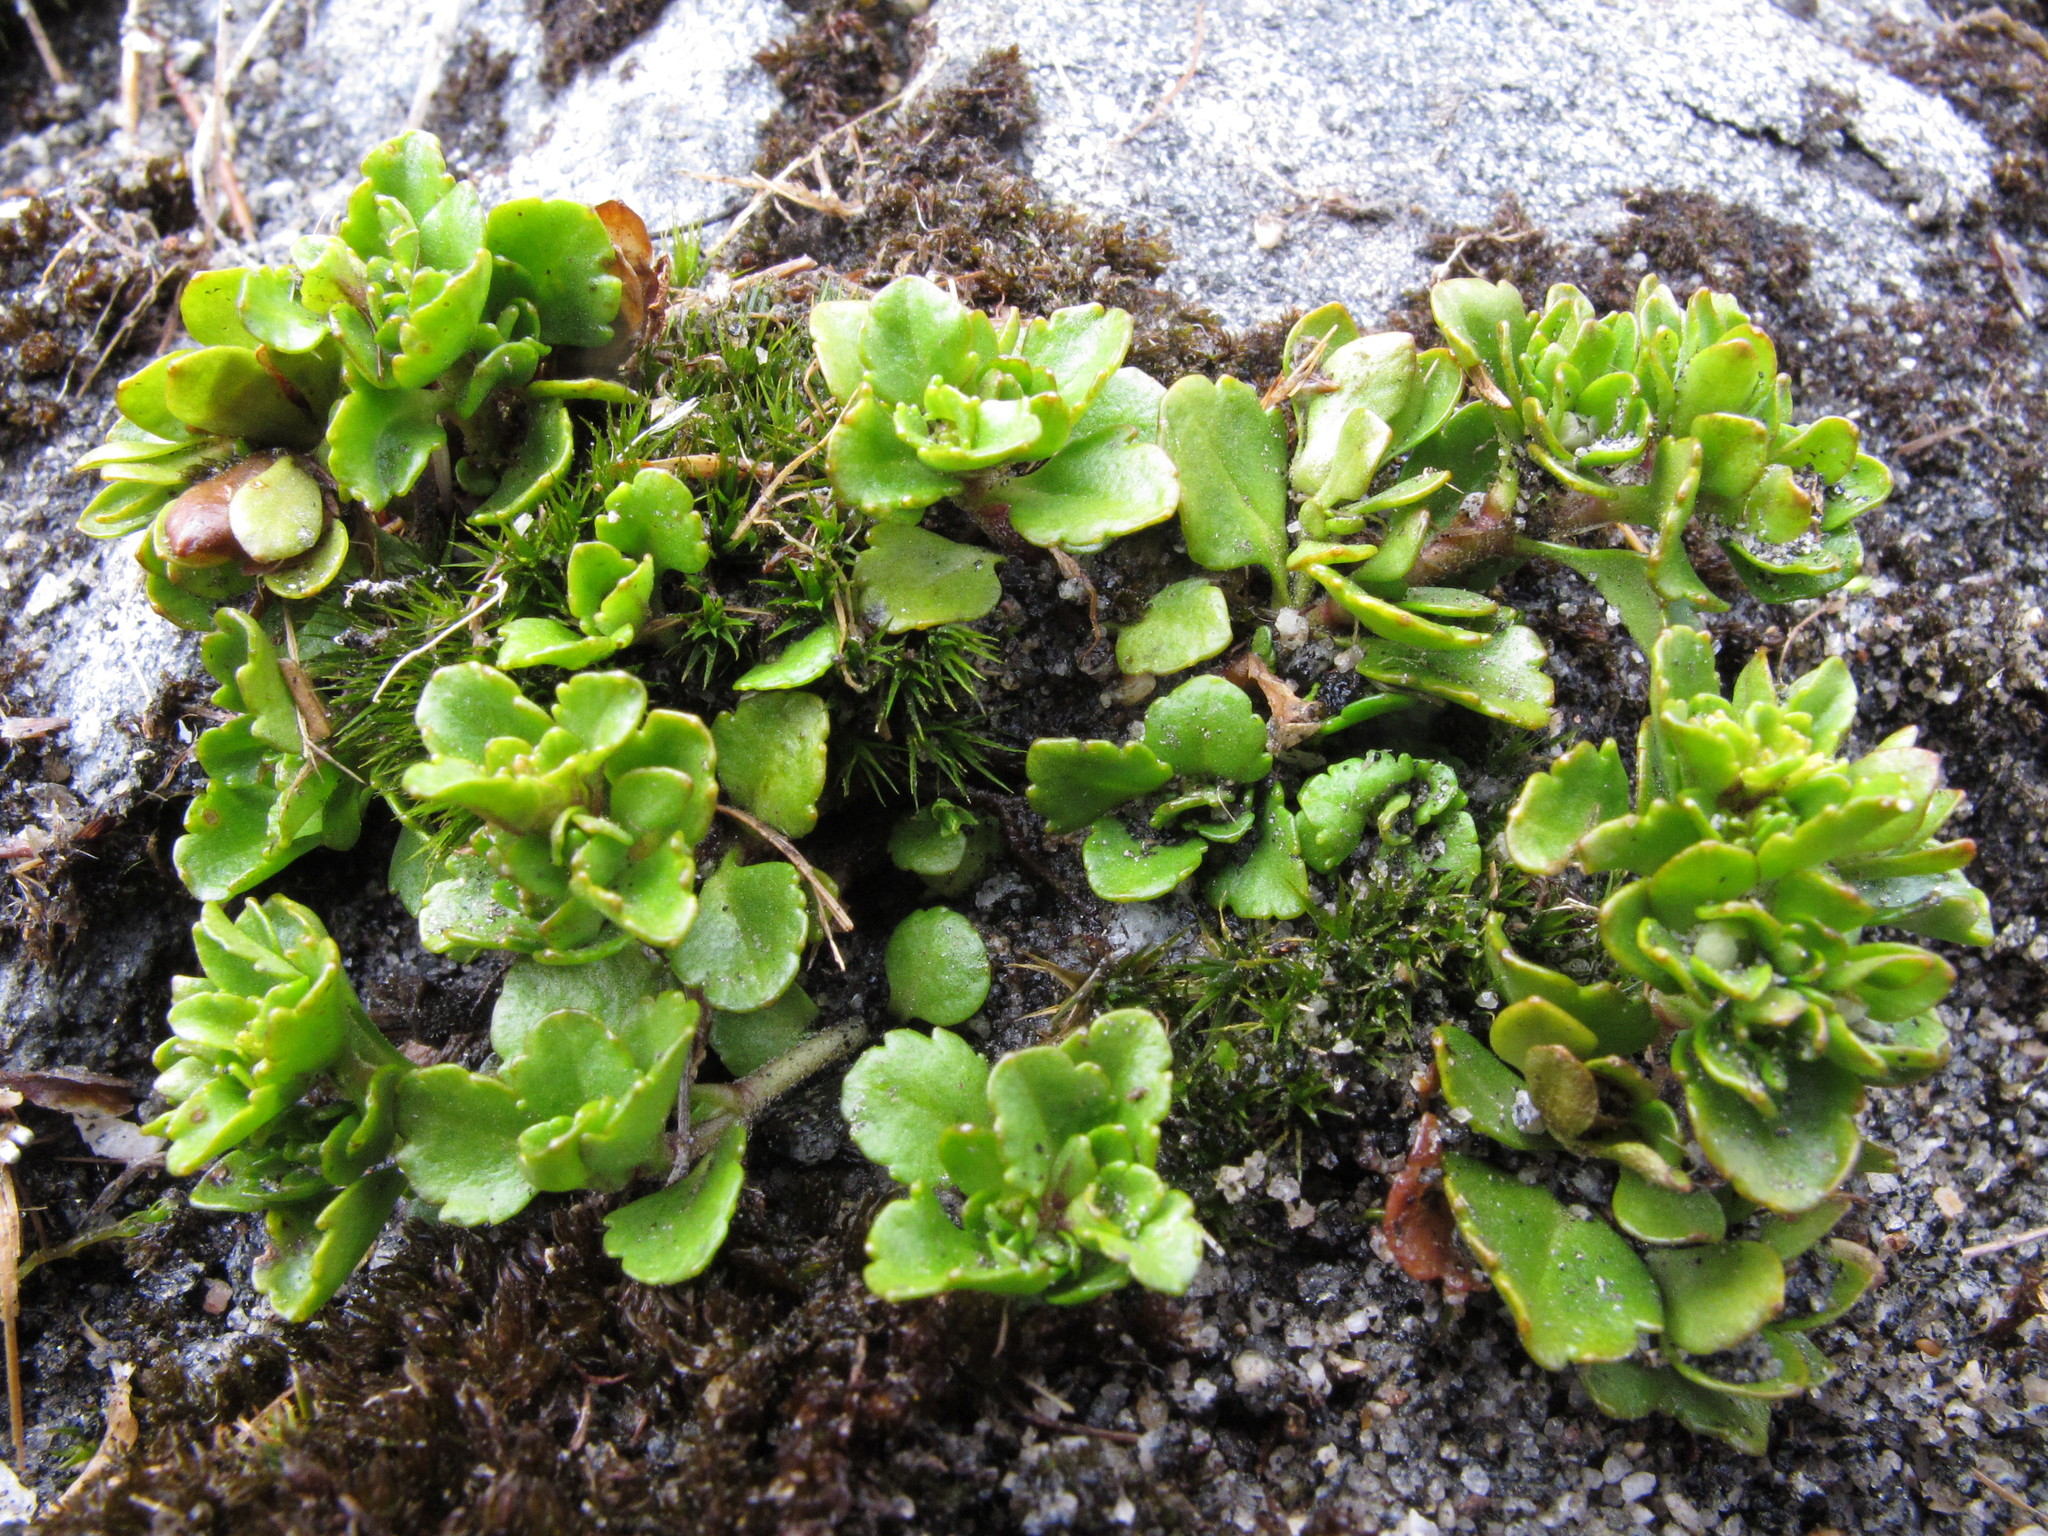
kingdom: Plantae
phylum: Tracheophyta
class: Magnoliopsida
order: Lamiales
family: Plantaginaceae
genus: Veronica
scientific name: Veronica zygantha
